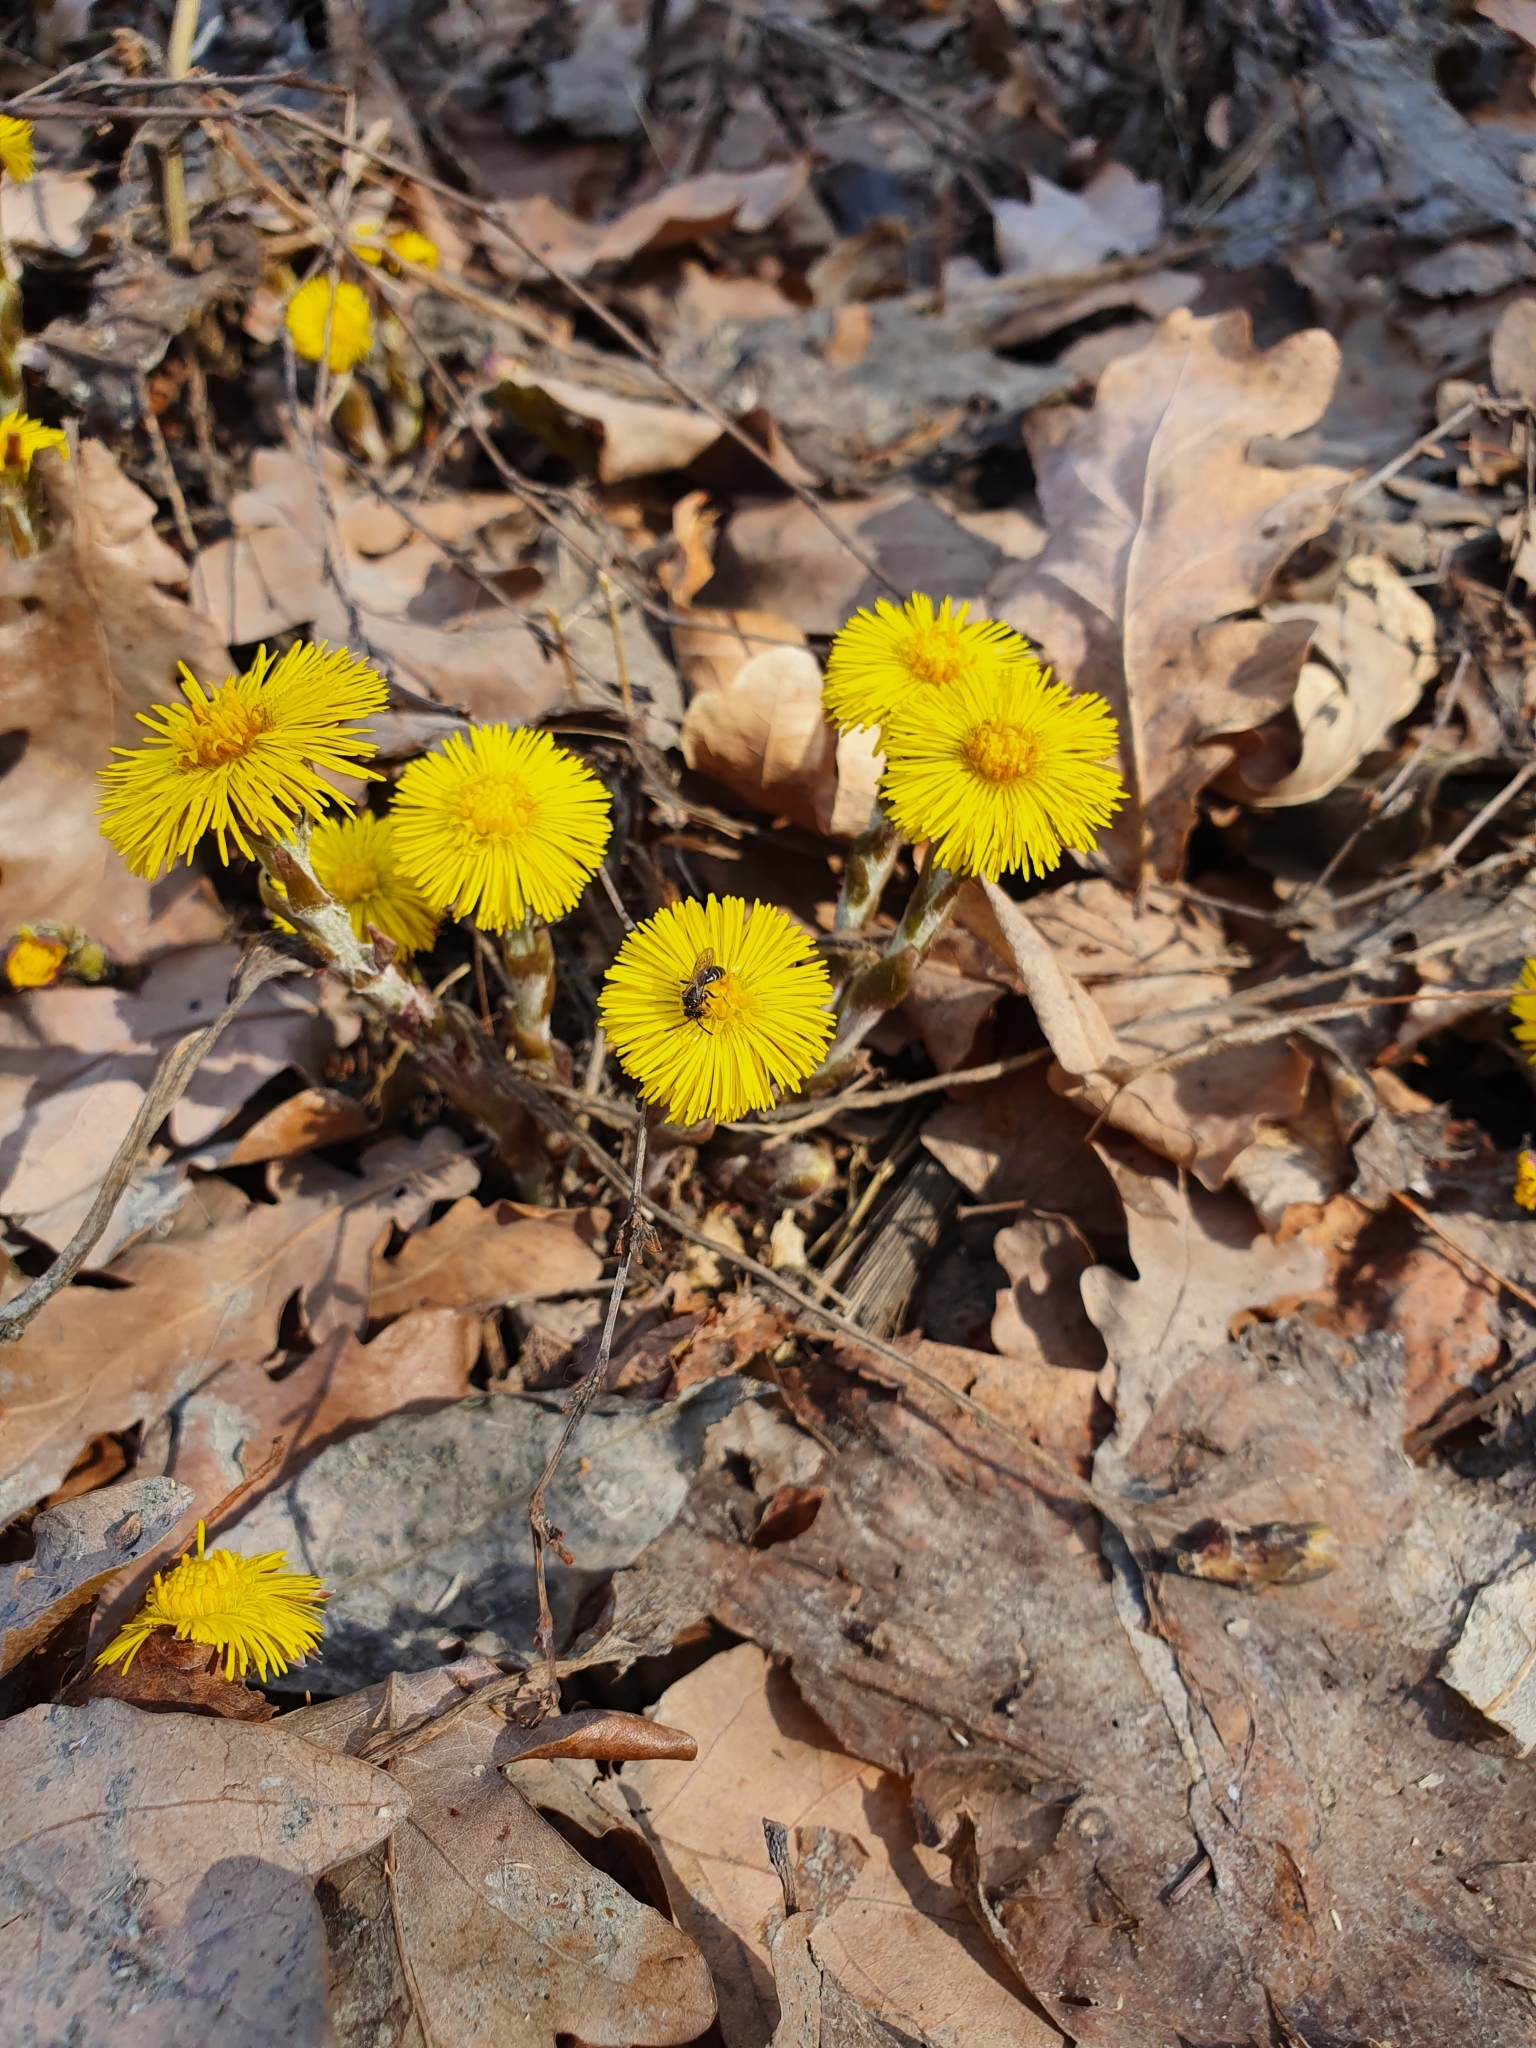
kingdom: Plantae
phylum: Tracheophyta
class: Magnoliopsida
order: Asterales
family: Asteraceae
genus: Tussilago
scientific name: Tussilago farfara
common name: Coltsfoot
